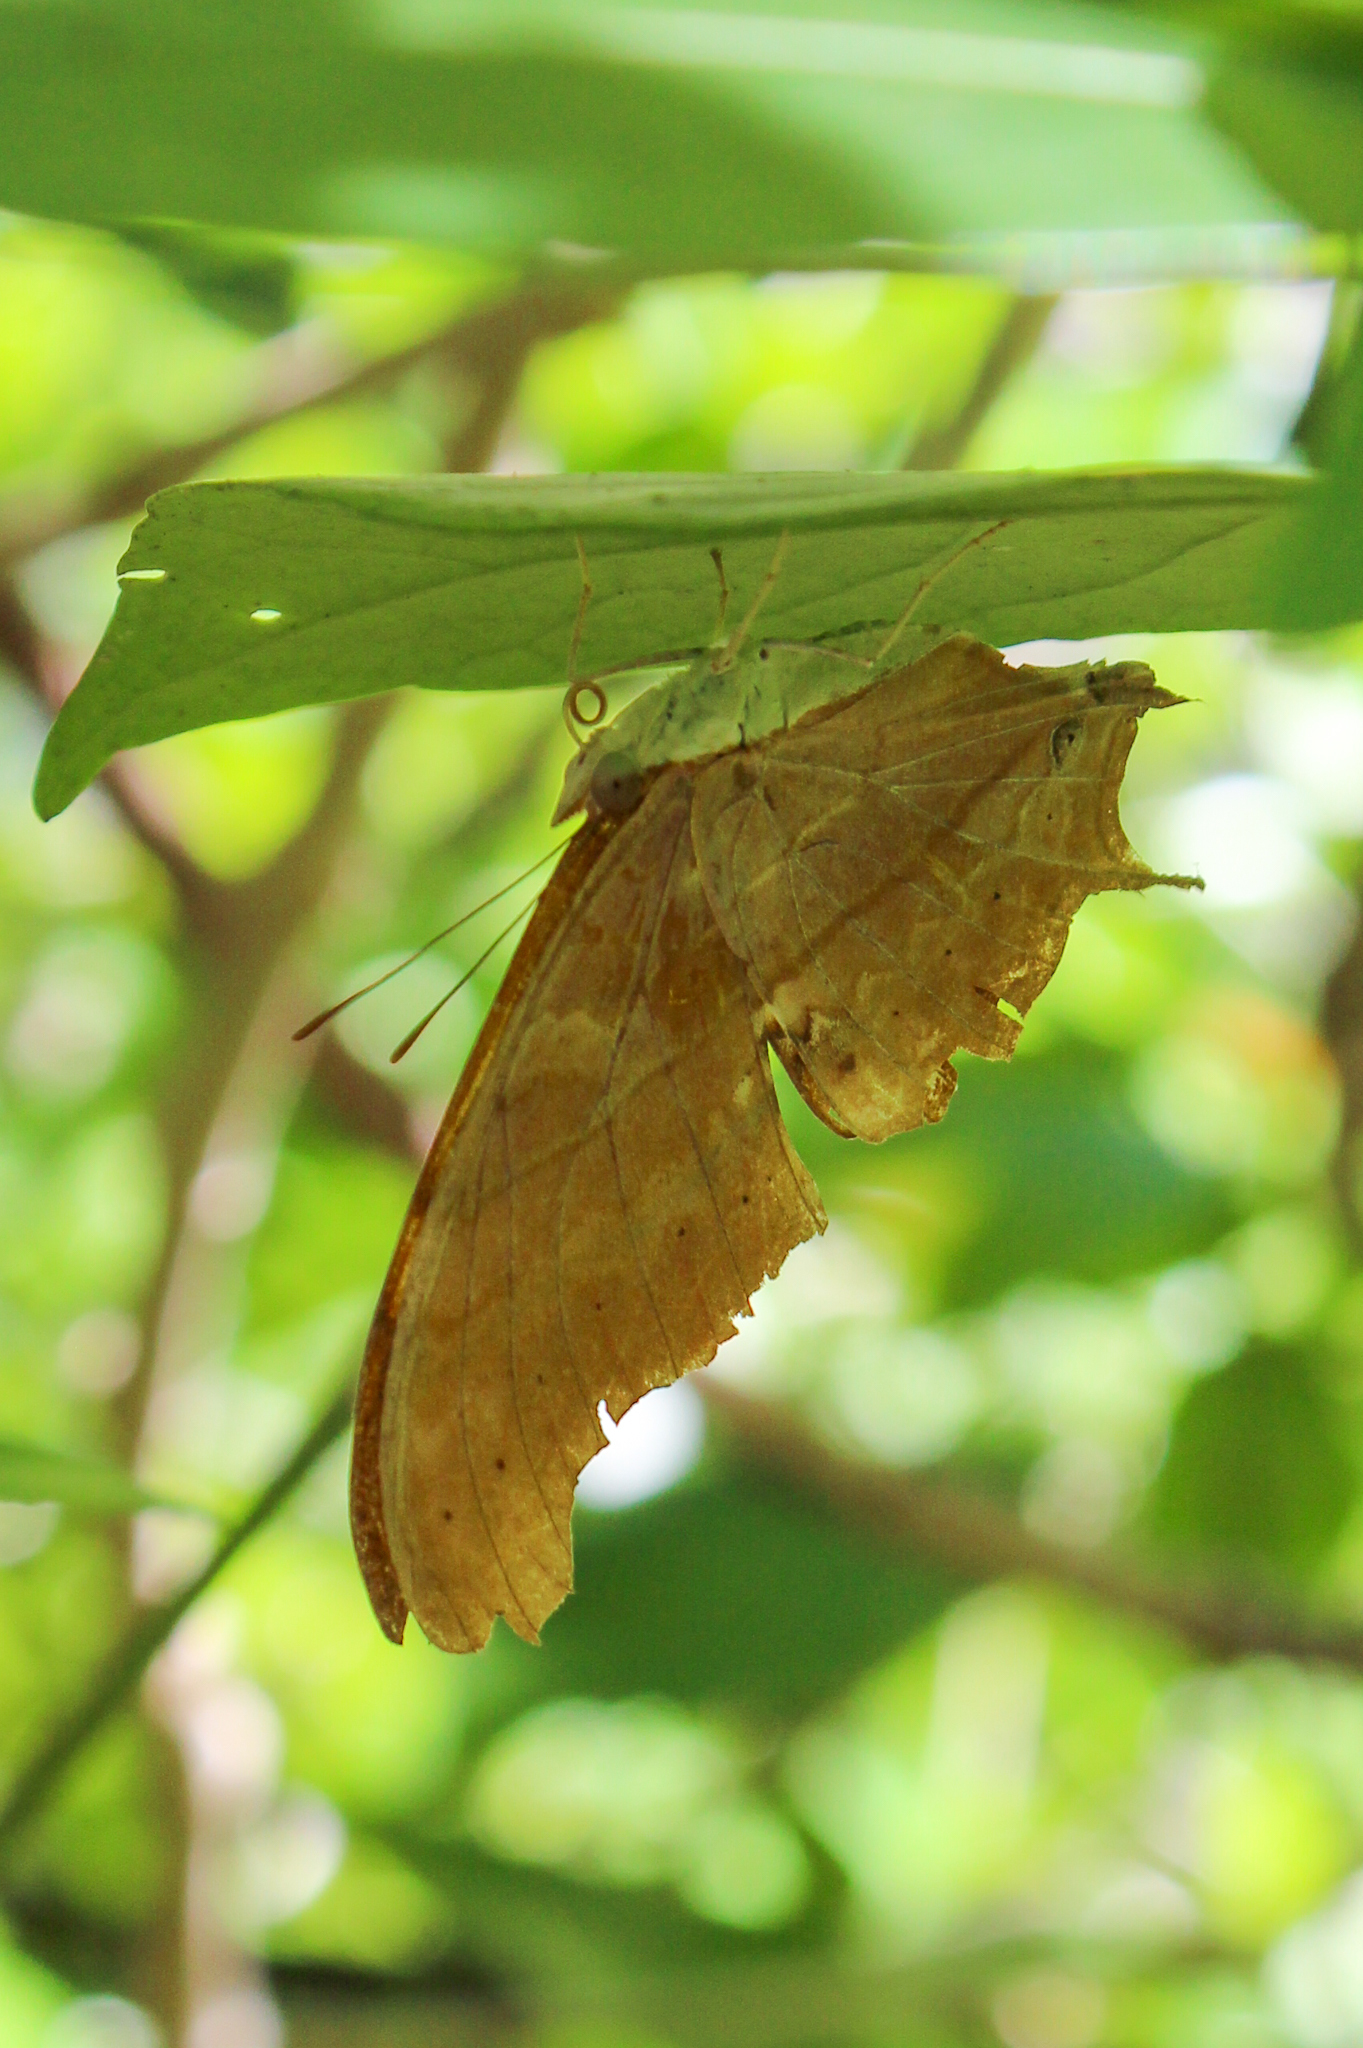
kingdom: Animalia
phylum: Arthropoda
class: Insecta
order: Lepidoptera
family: Nymphalidae
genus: Marpesia
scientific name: Marpesia petreus
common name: Red dagger wing
